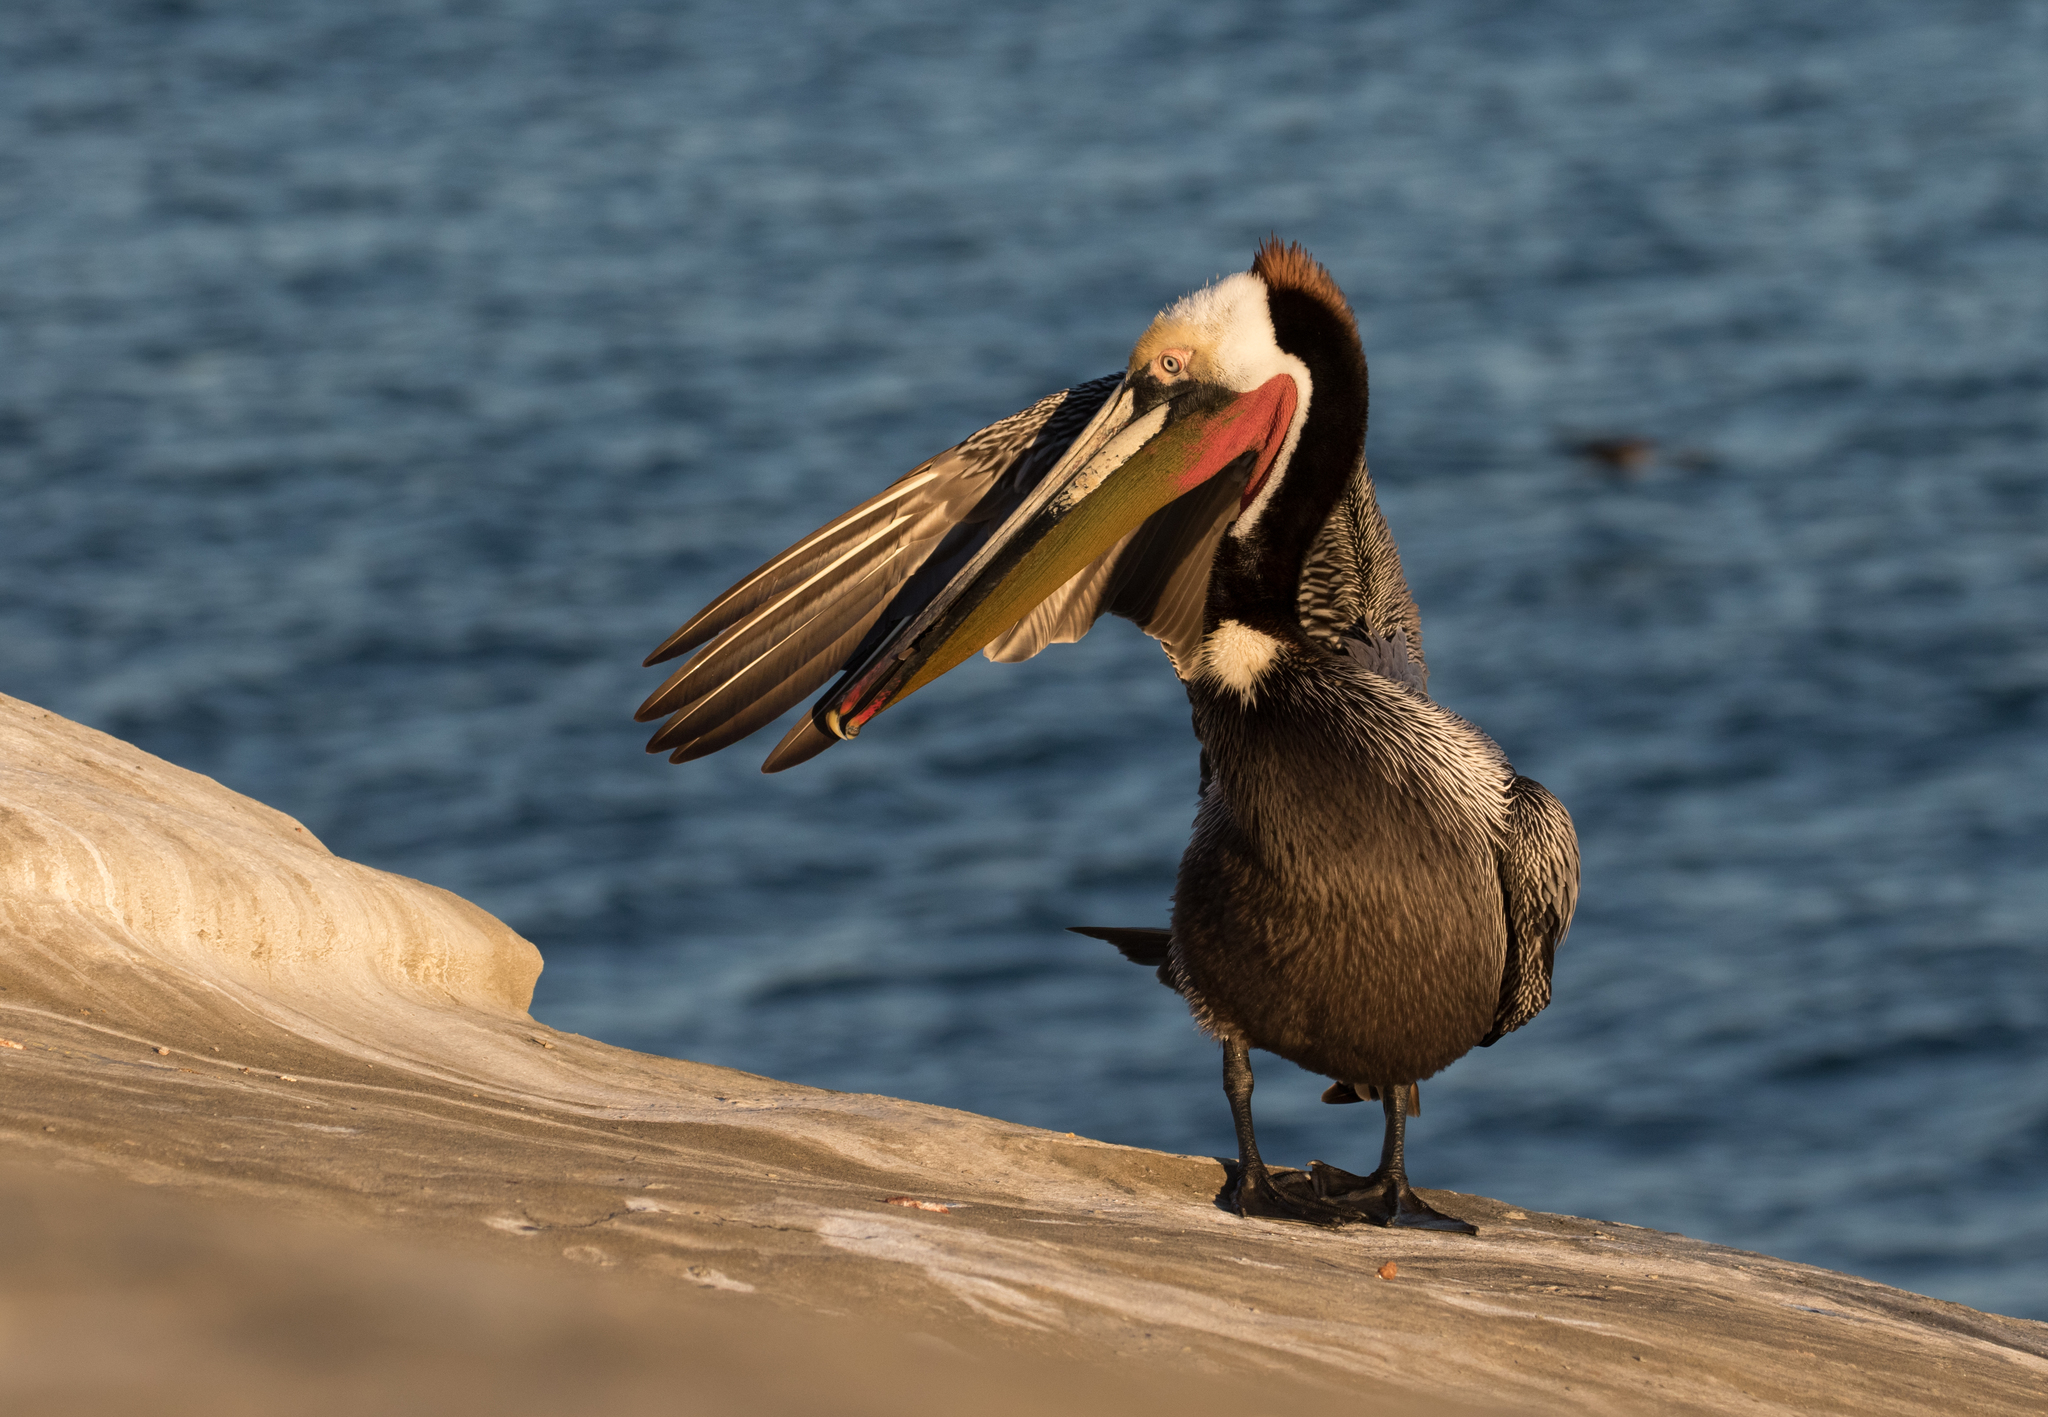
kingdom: Animalia
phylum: Chordata
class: Aves
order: Pelecaniformes
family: Pelecanidae
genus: Pelecanus
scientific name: Pelecanus occidentalis
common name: Brown pelican
